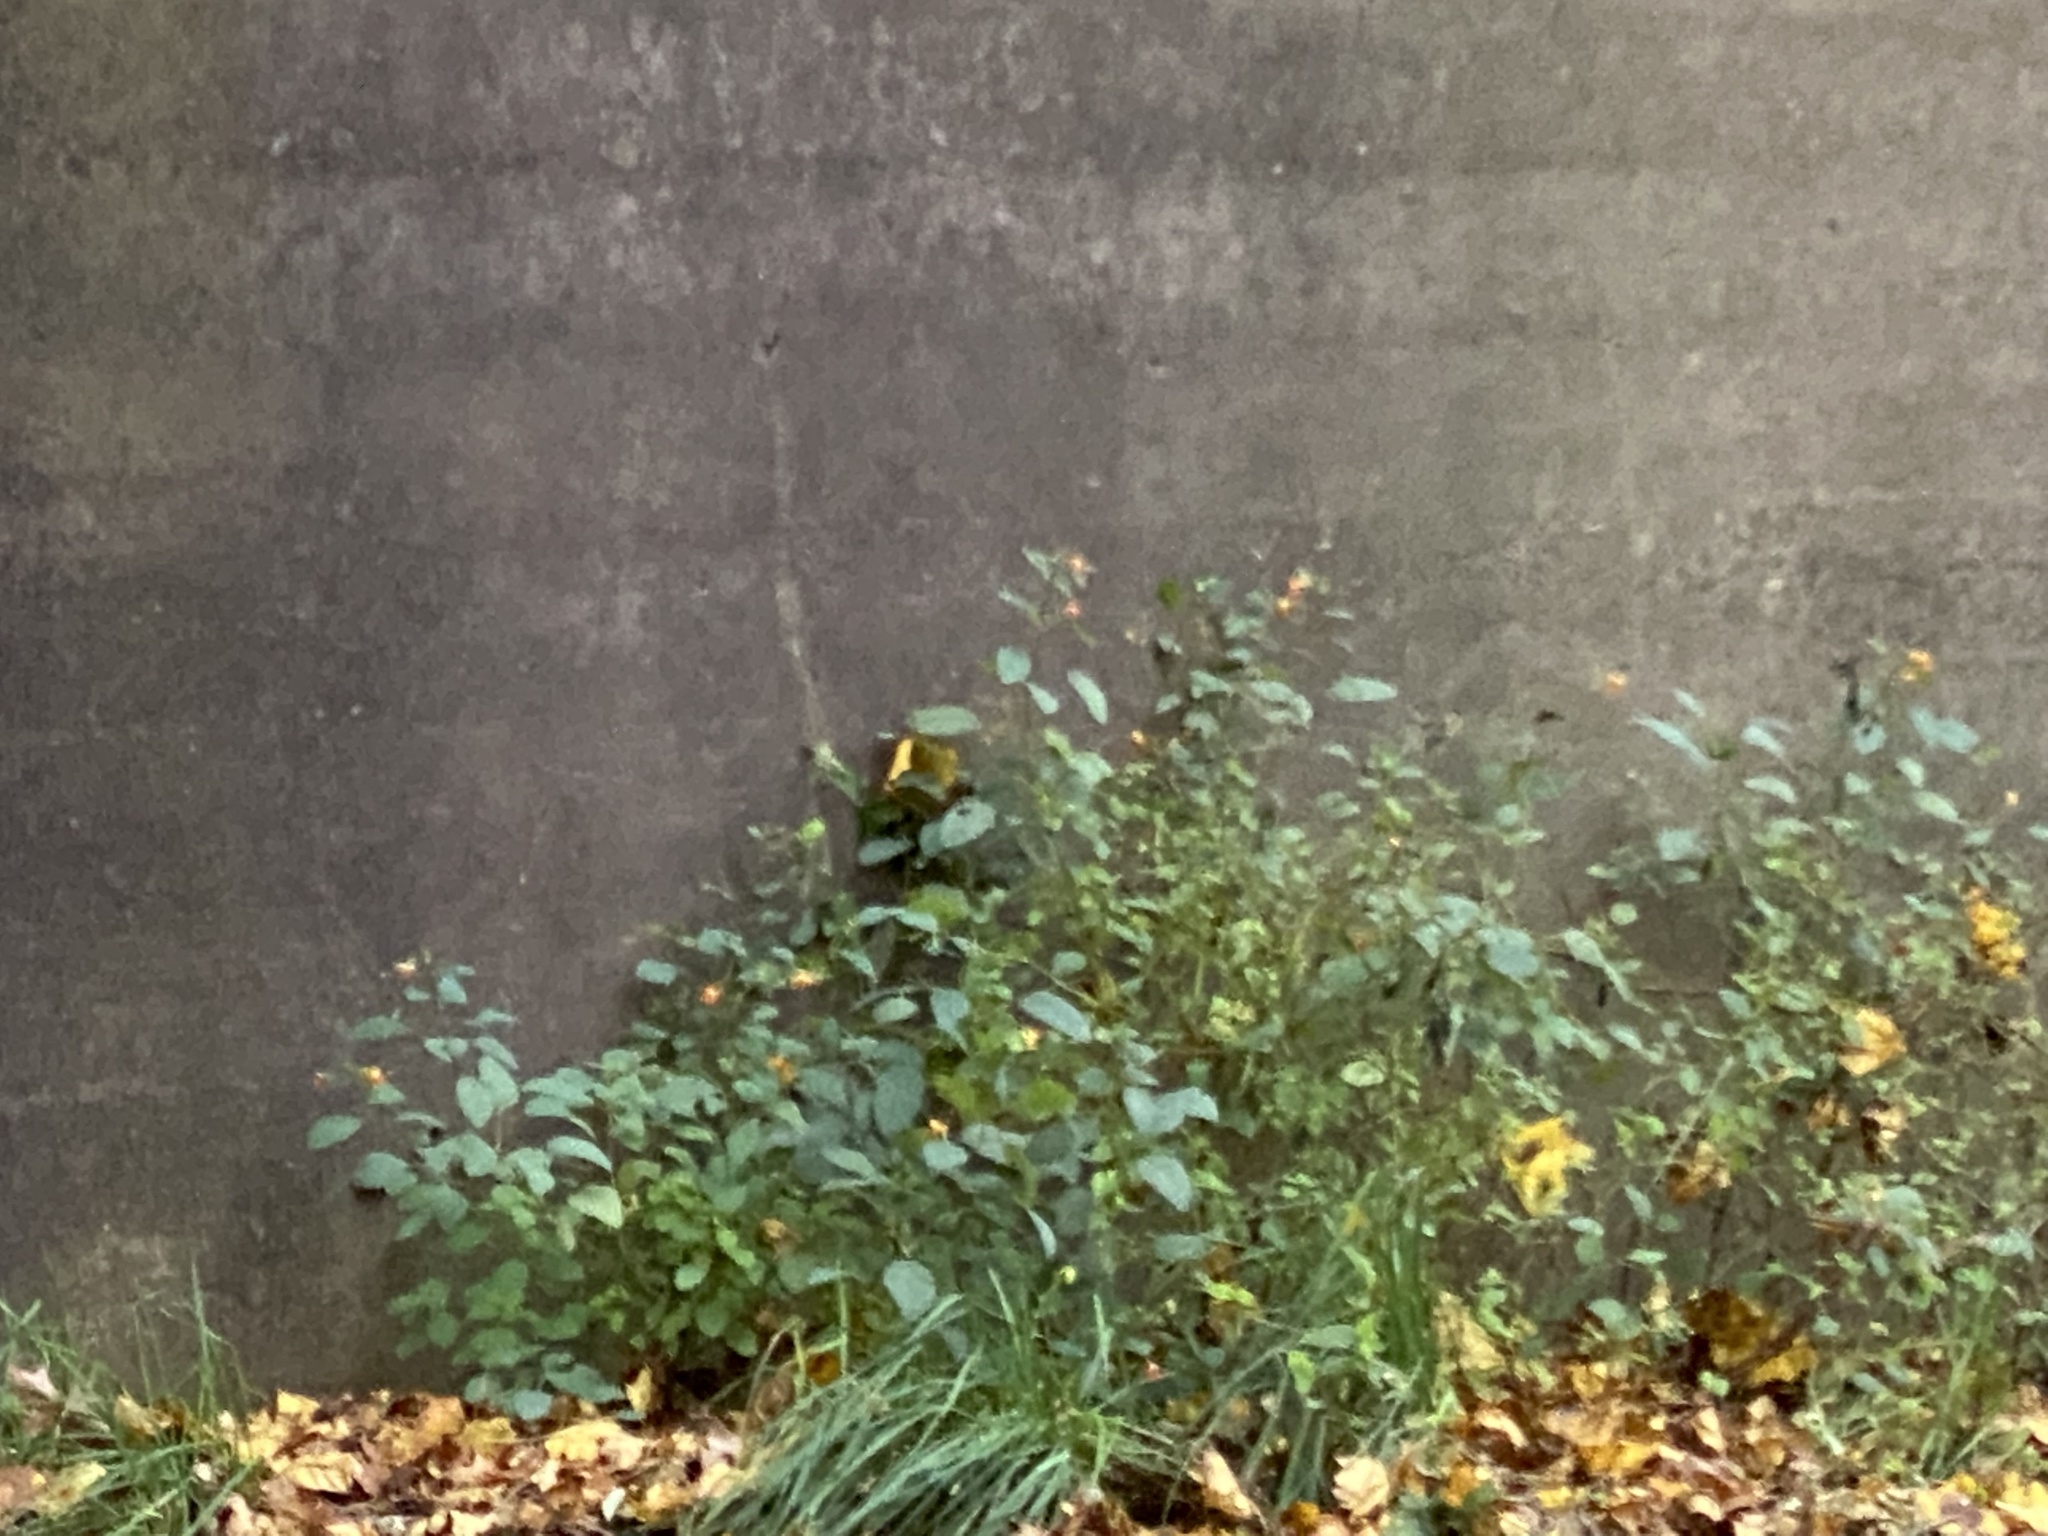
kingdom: Plantae
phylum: Tracheophyta
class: Magnoliopsida
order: Ericales
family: Balsaminaceae
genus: Impatiens
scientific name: Impatiens capensis
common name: Orange balsam
